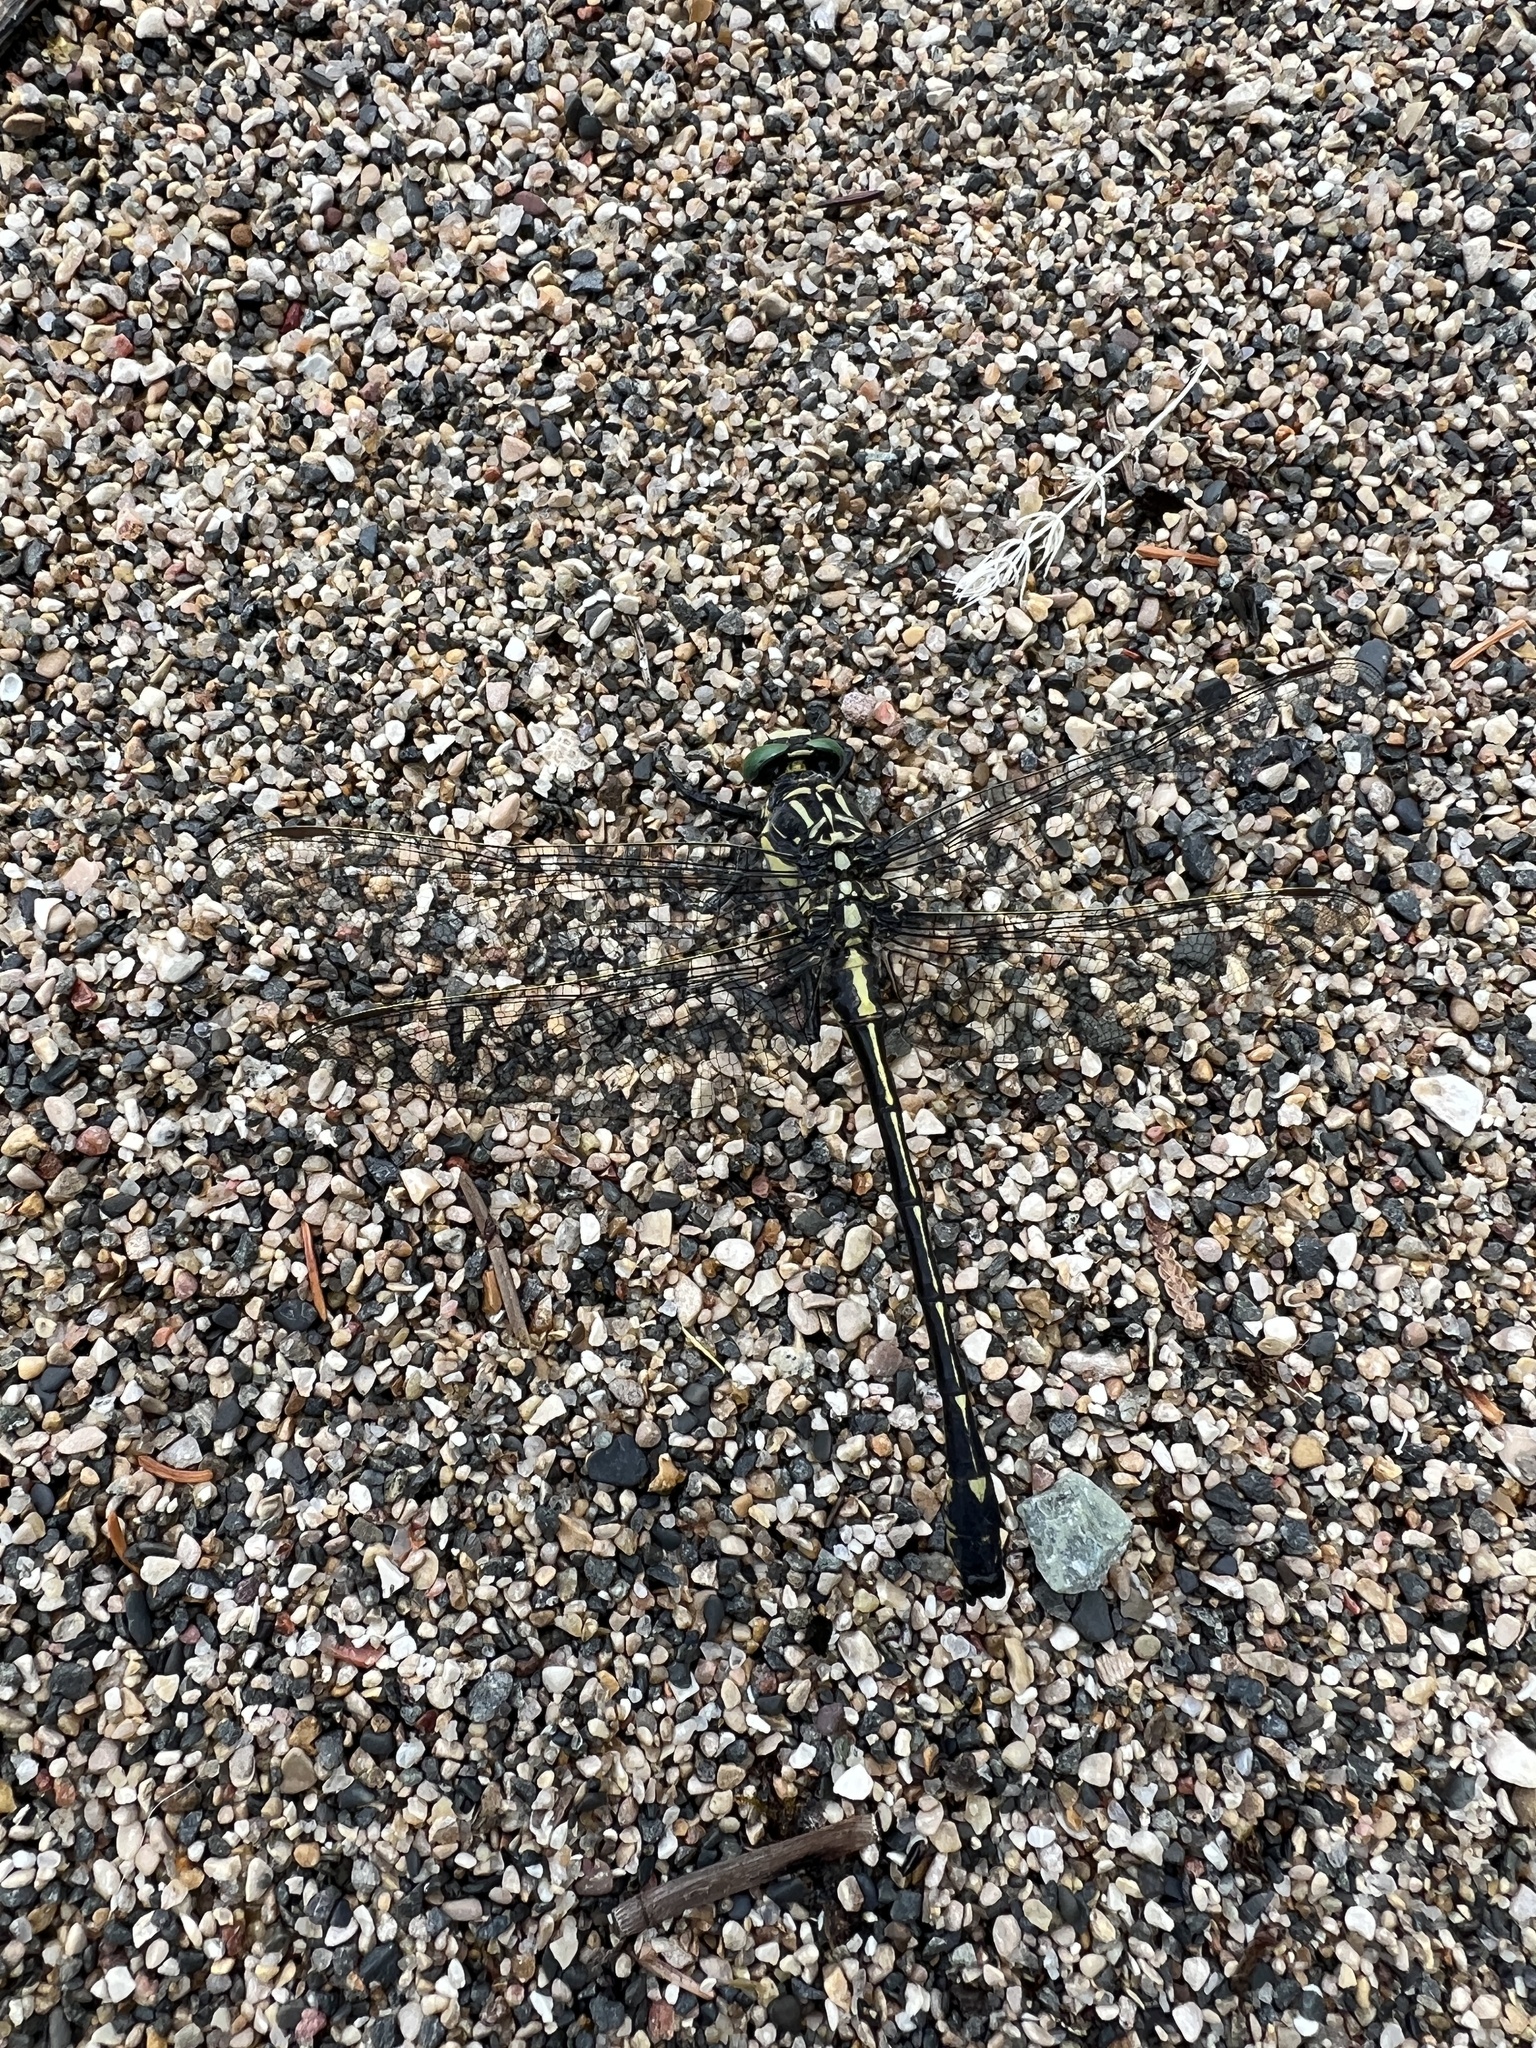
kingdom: Animalia
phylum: Arthropoda
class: Insecta
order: Odonata
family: Gomphidae
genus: Hagenius
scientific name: Hagenius brevistylus
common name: Dragonhunter
